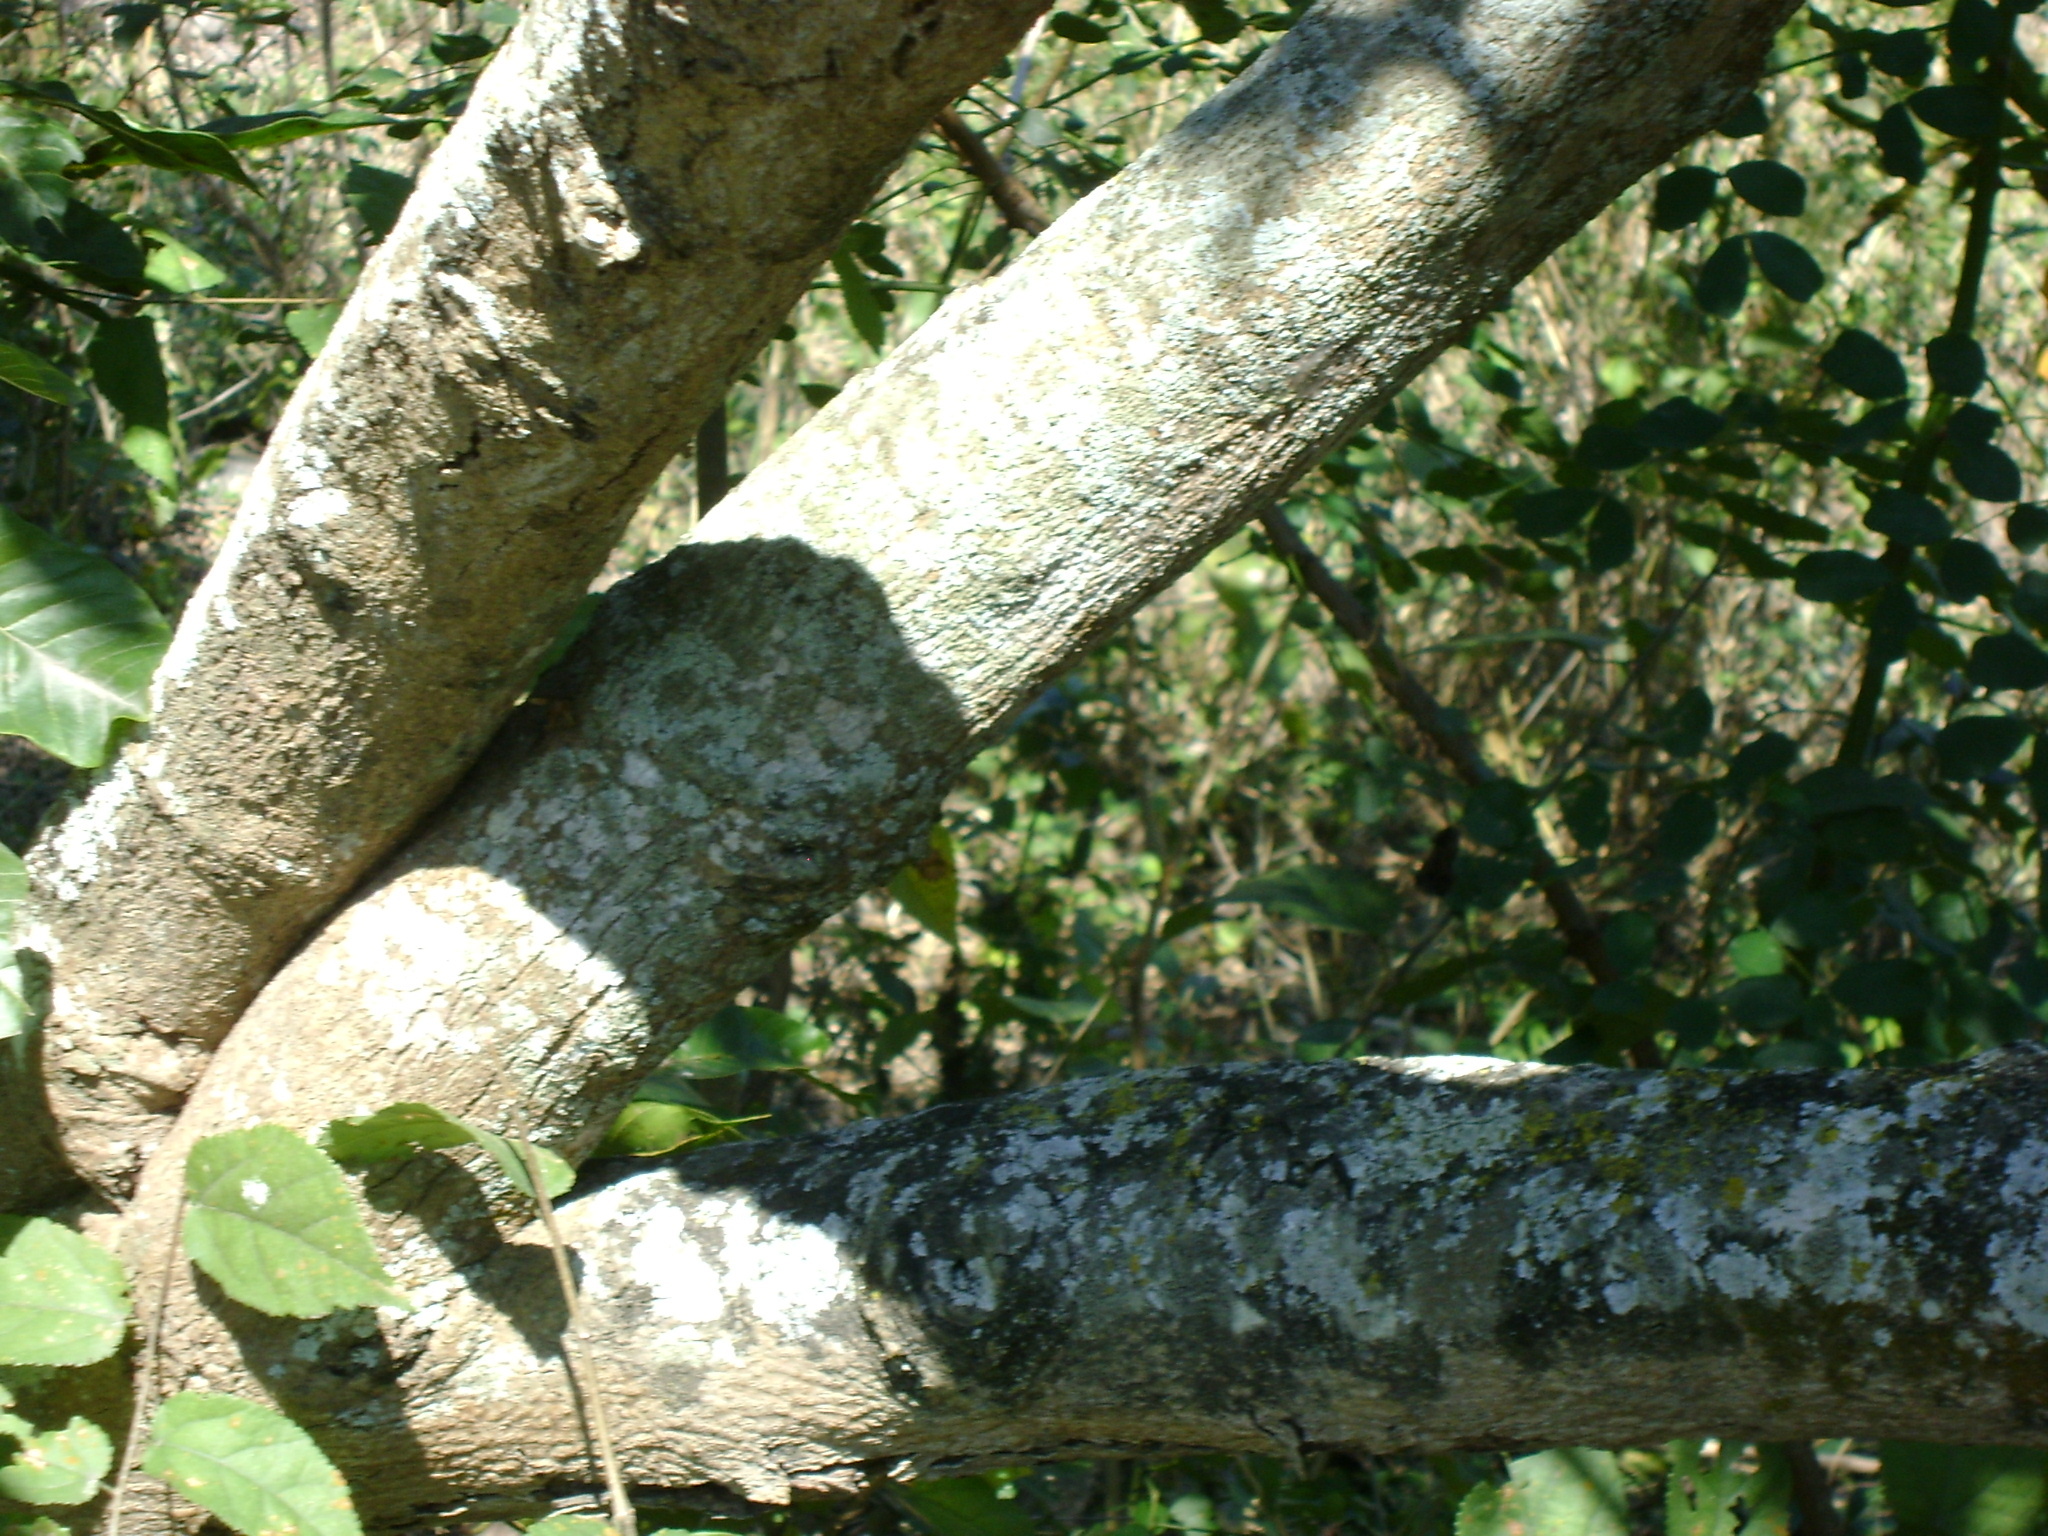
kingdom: Plantae
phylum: Tracheophyta
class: Magnoliopsida
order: Magnoliales
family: Annonaceae
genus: Annona
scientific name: Annona reticulata
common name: Custard apple
